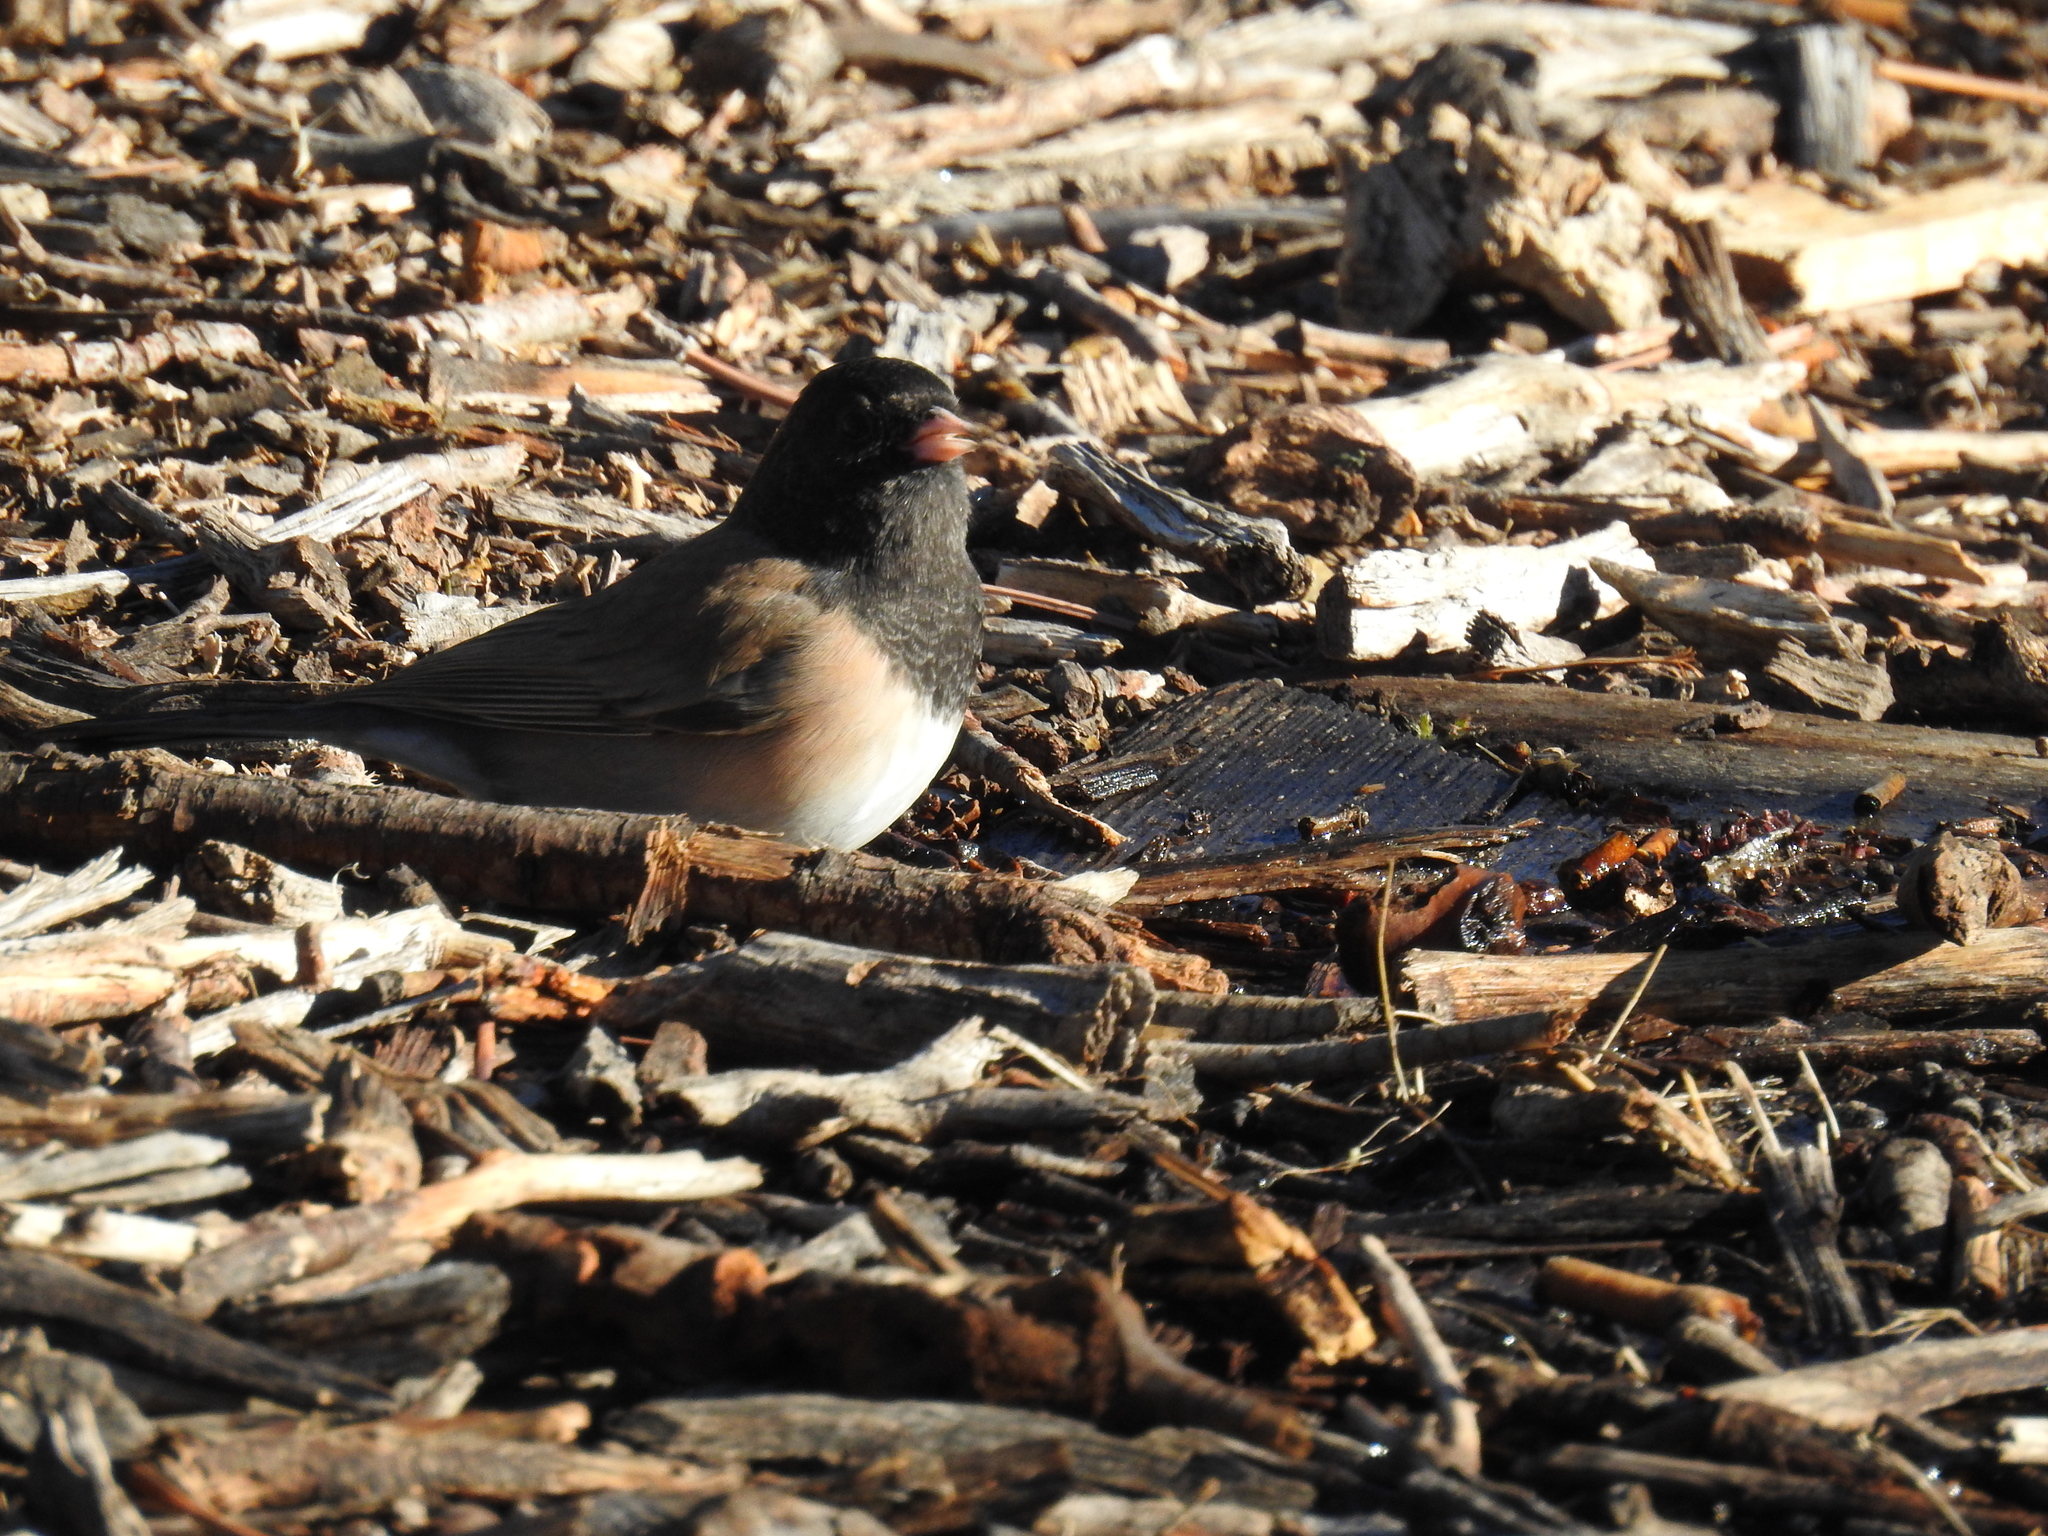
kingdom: Animalia
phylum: Chordata
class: Aves
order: Passeriformes
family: Passerellidae
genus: Junco
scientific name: Junco hyemalis
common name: Dark-eyed junco
